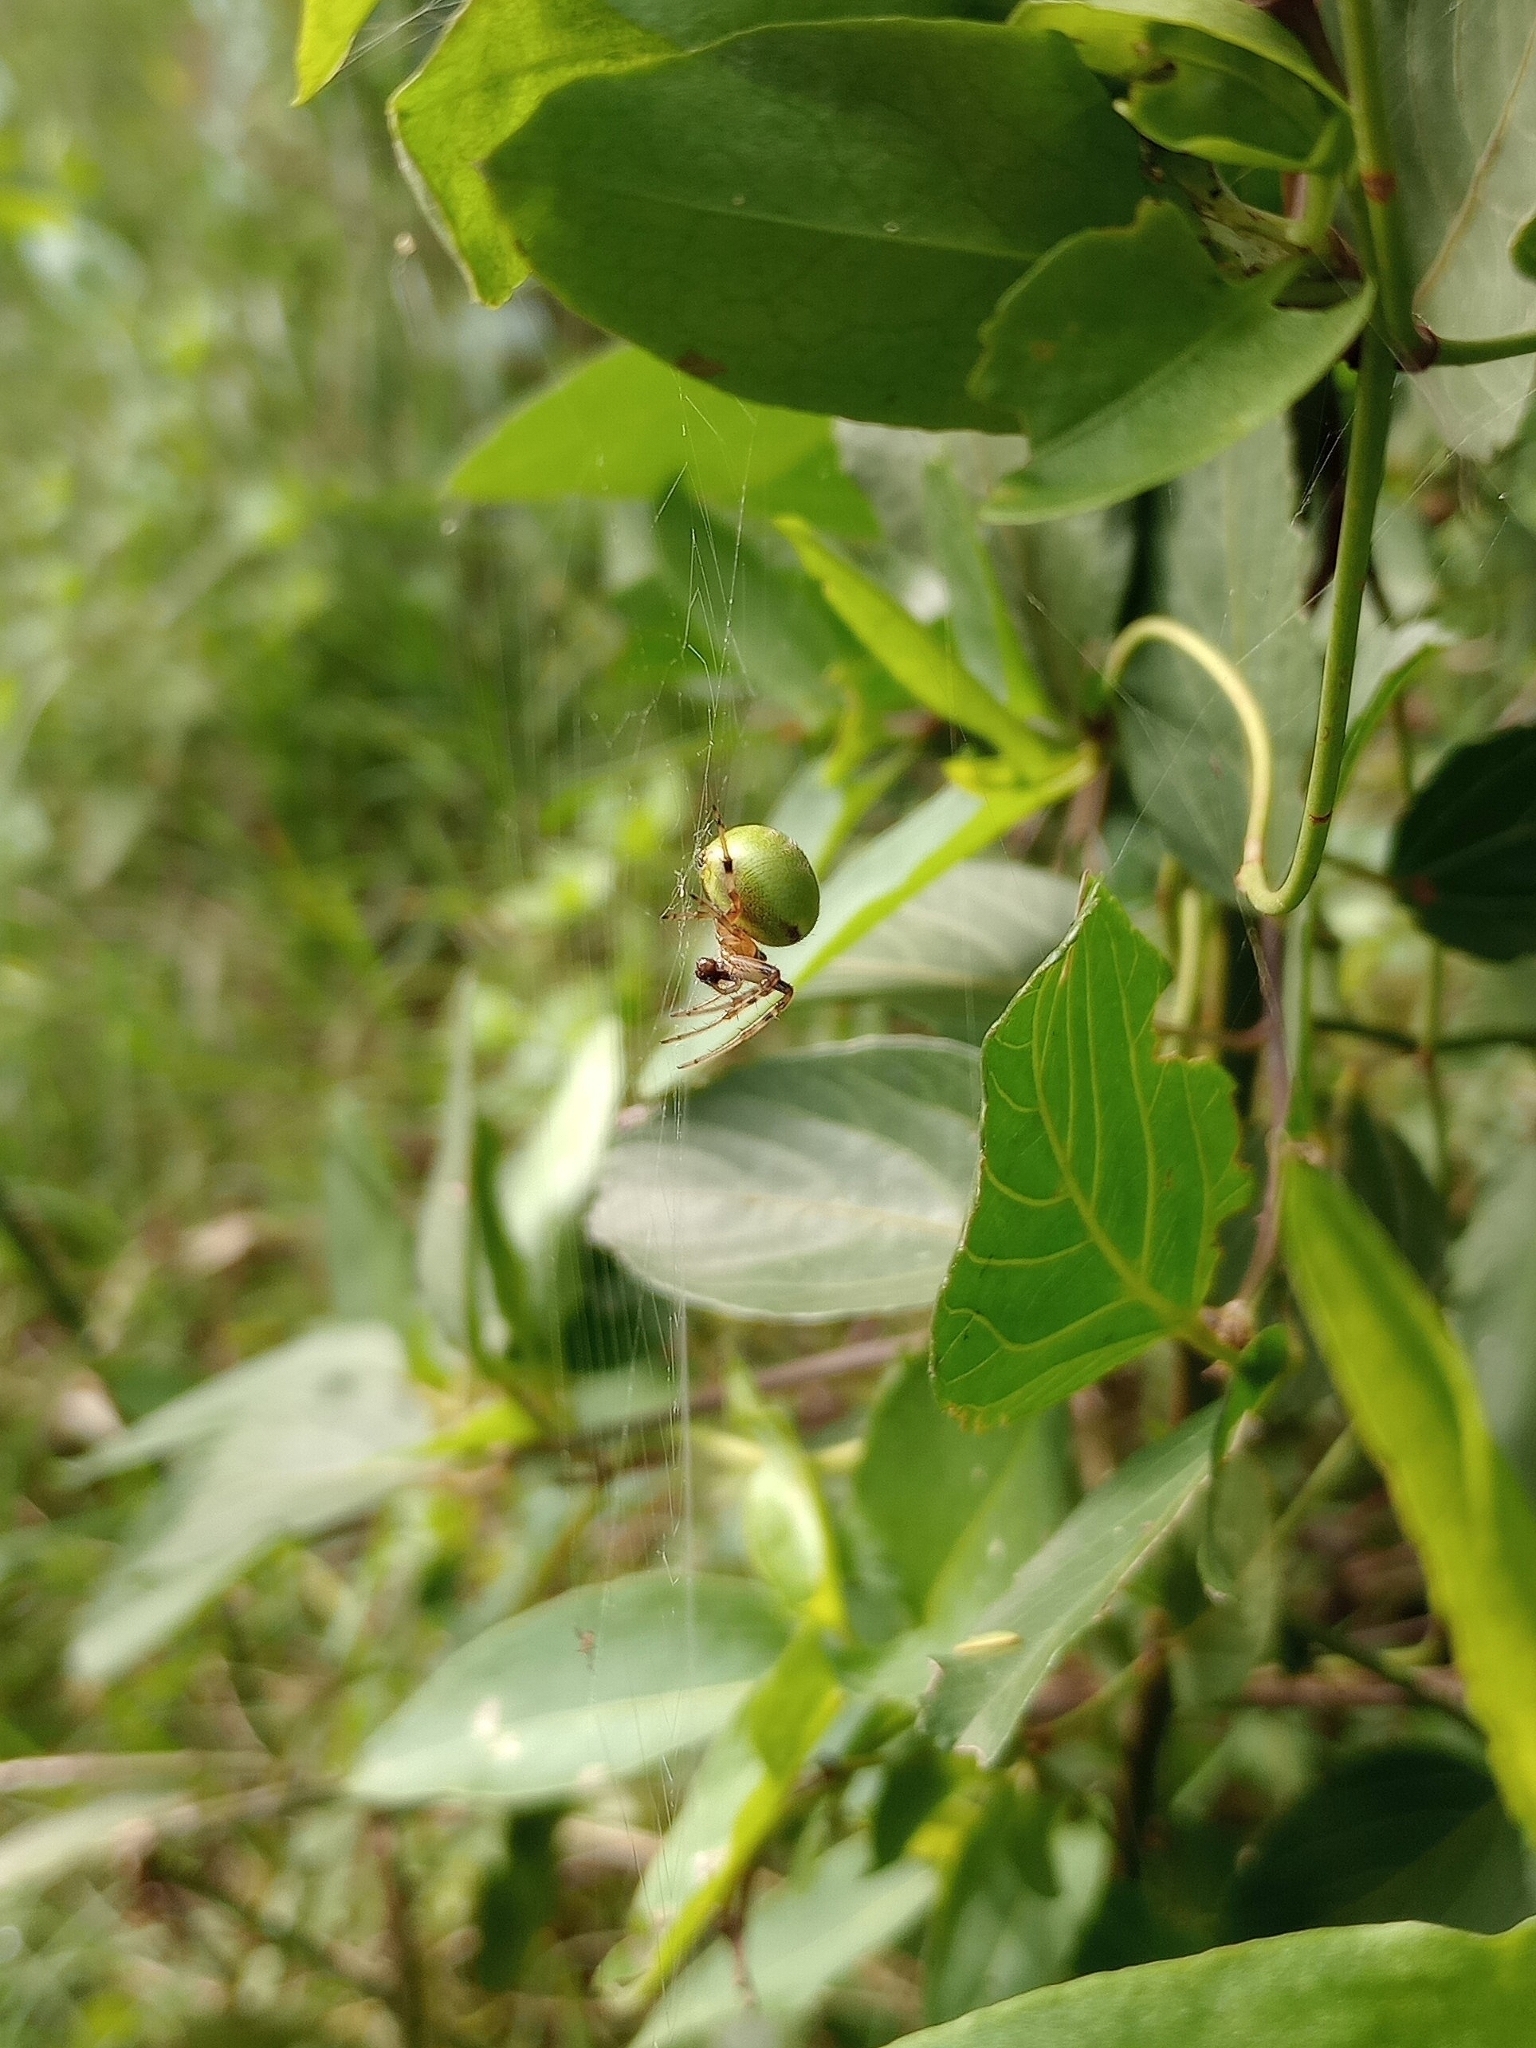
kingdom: Animalia
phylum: Arthropoda
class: Arachnida
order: Araneae
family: Araneidae
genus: Araneus
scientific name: Araneus lathyrinus
